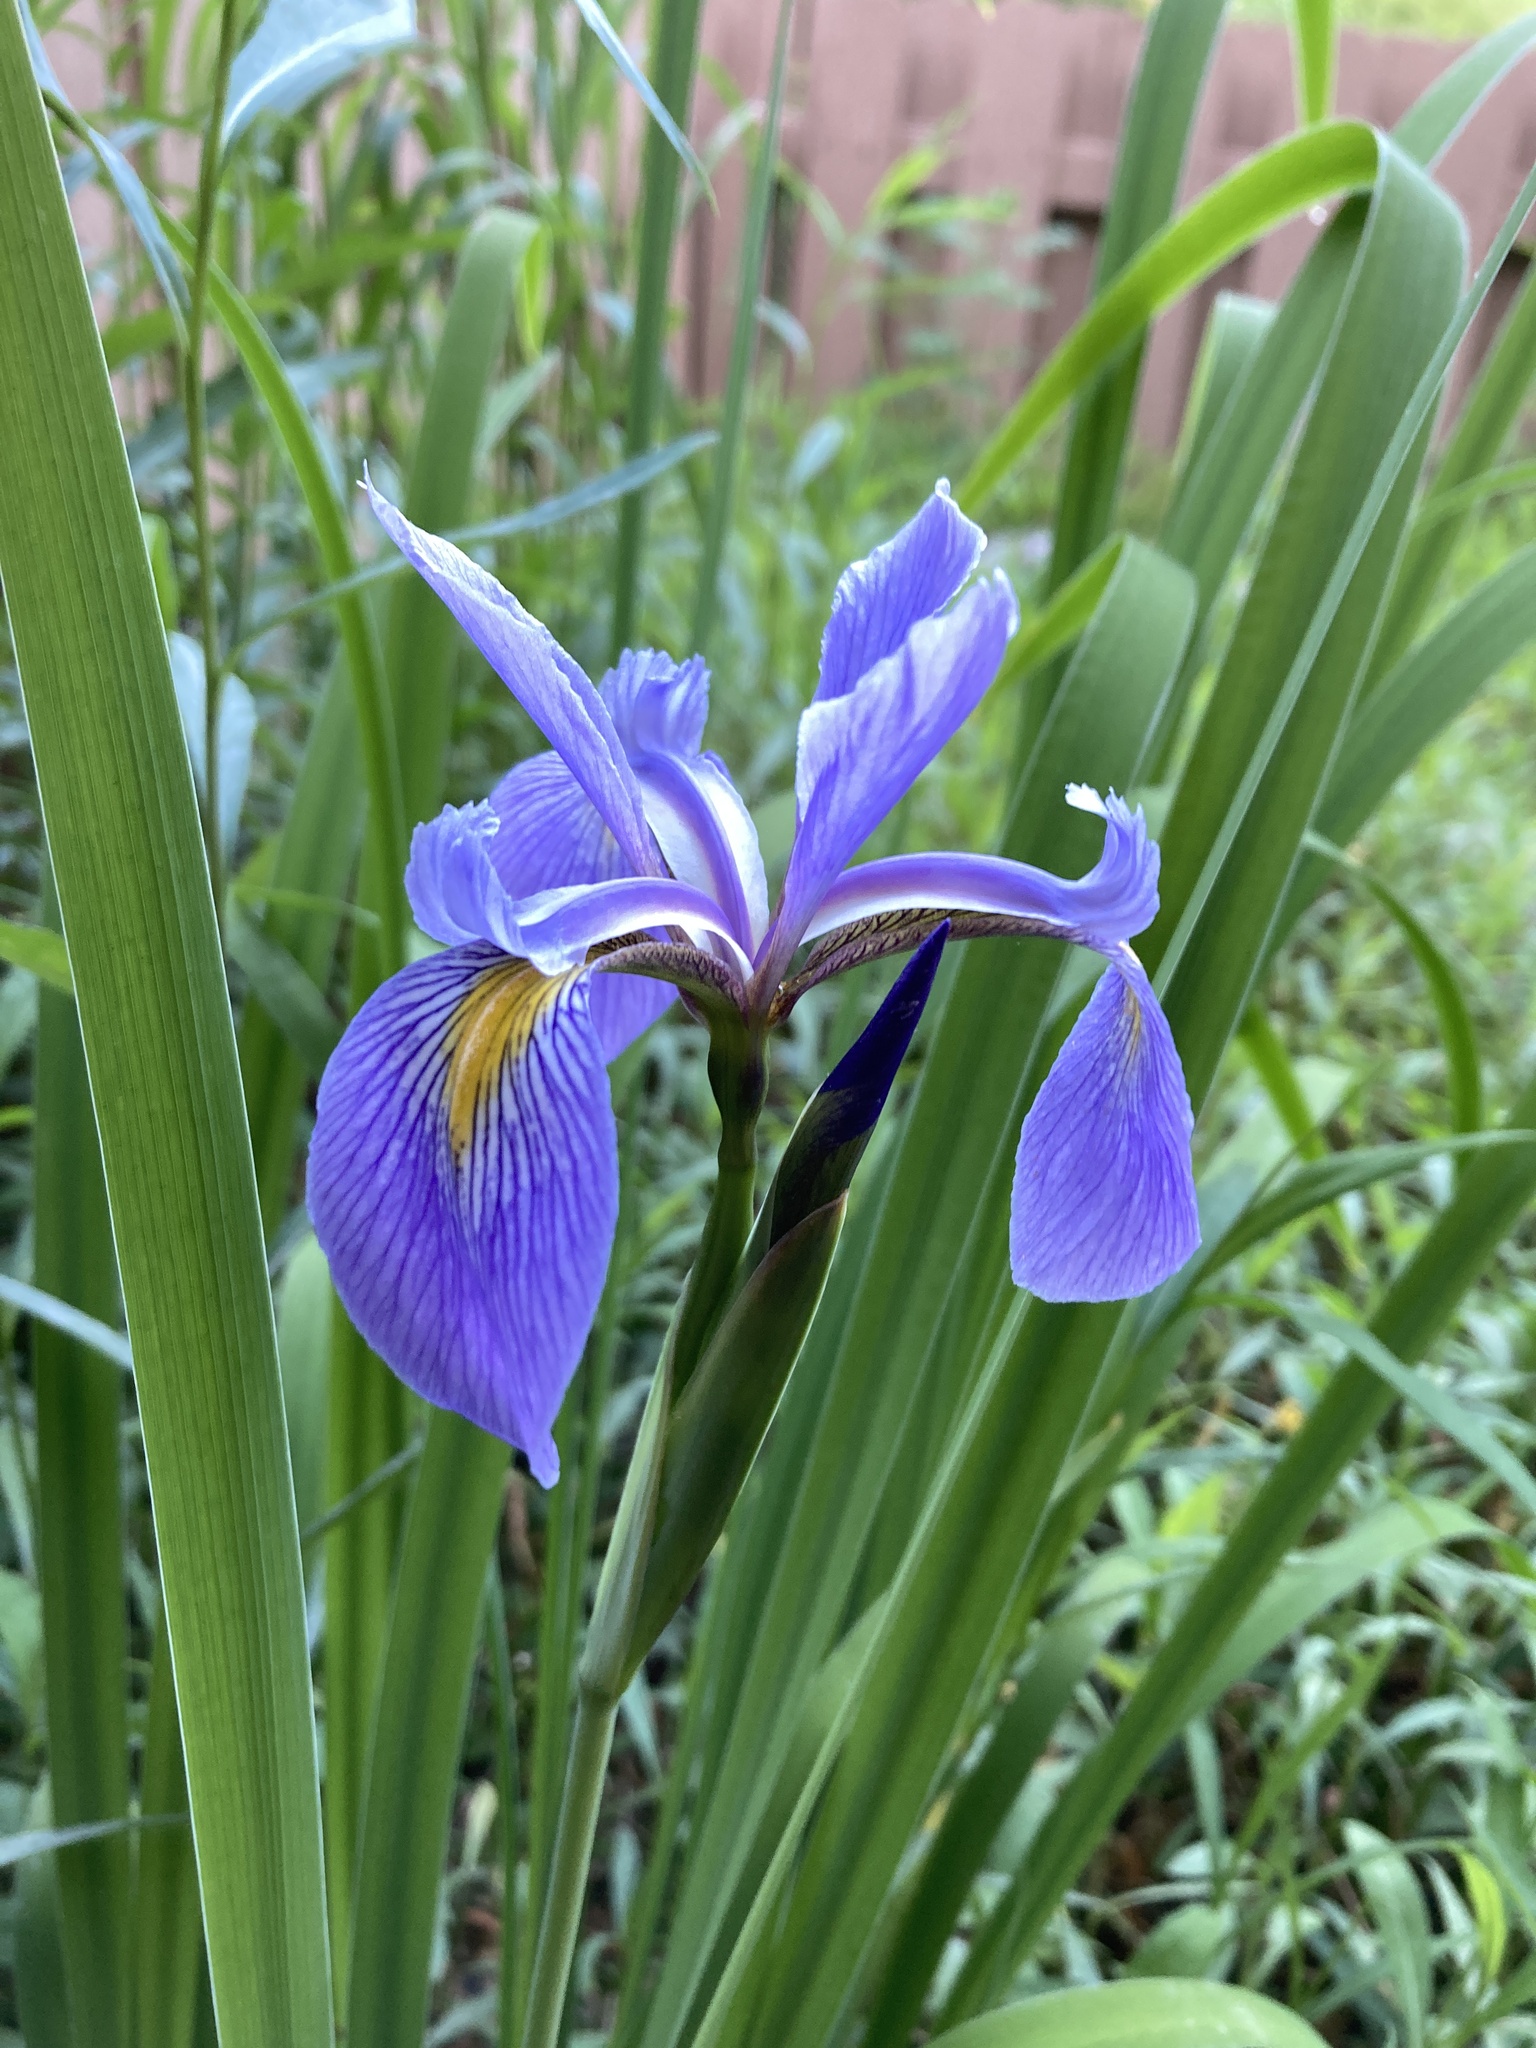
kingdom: Plantae
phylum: Tracheophyta
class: Liliopsida
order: Asparagales
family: Iridaceae
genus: Iris
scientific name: Iris virginica
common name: Southern blue flag
